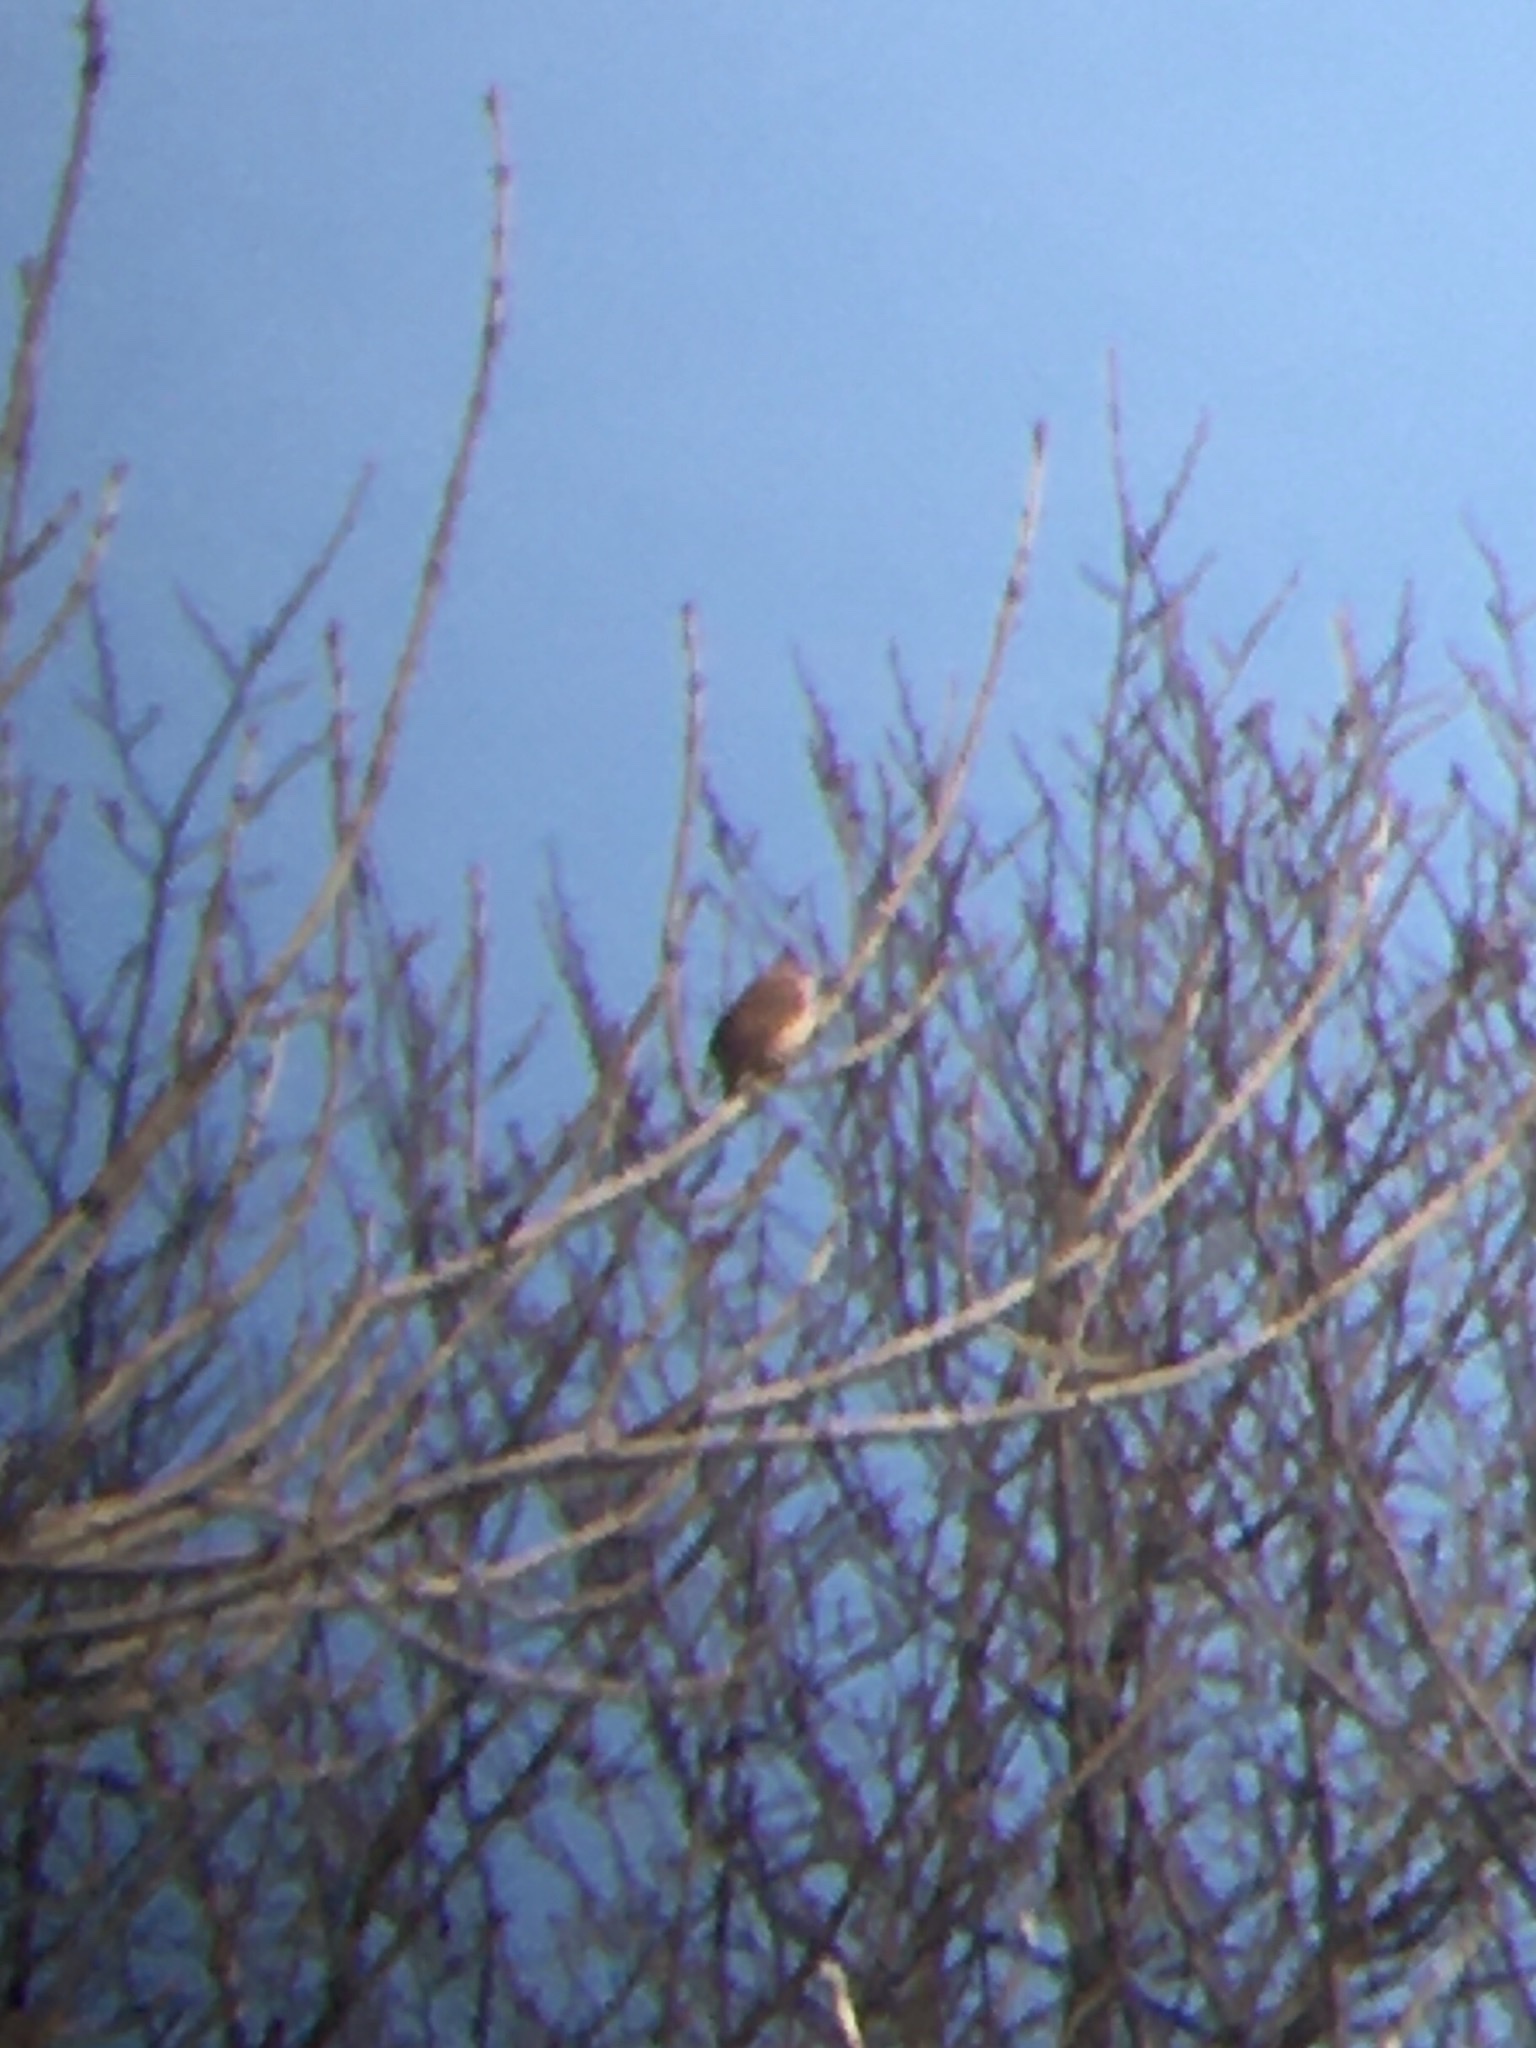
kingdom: Animalia
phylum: Chordata
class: Aves
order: Passeriformes
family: Troglodytidae
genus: Thryothorus
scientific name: Thryothorus ludovicianus
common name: Carolina wren
